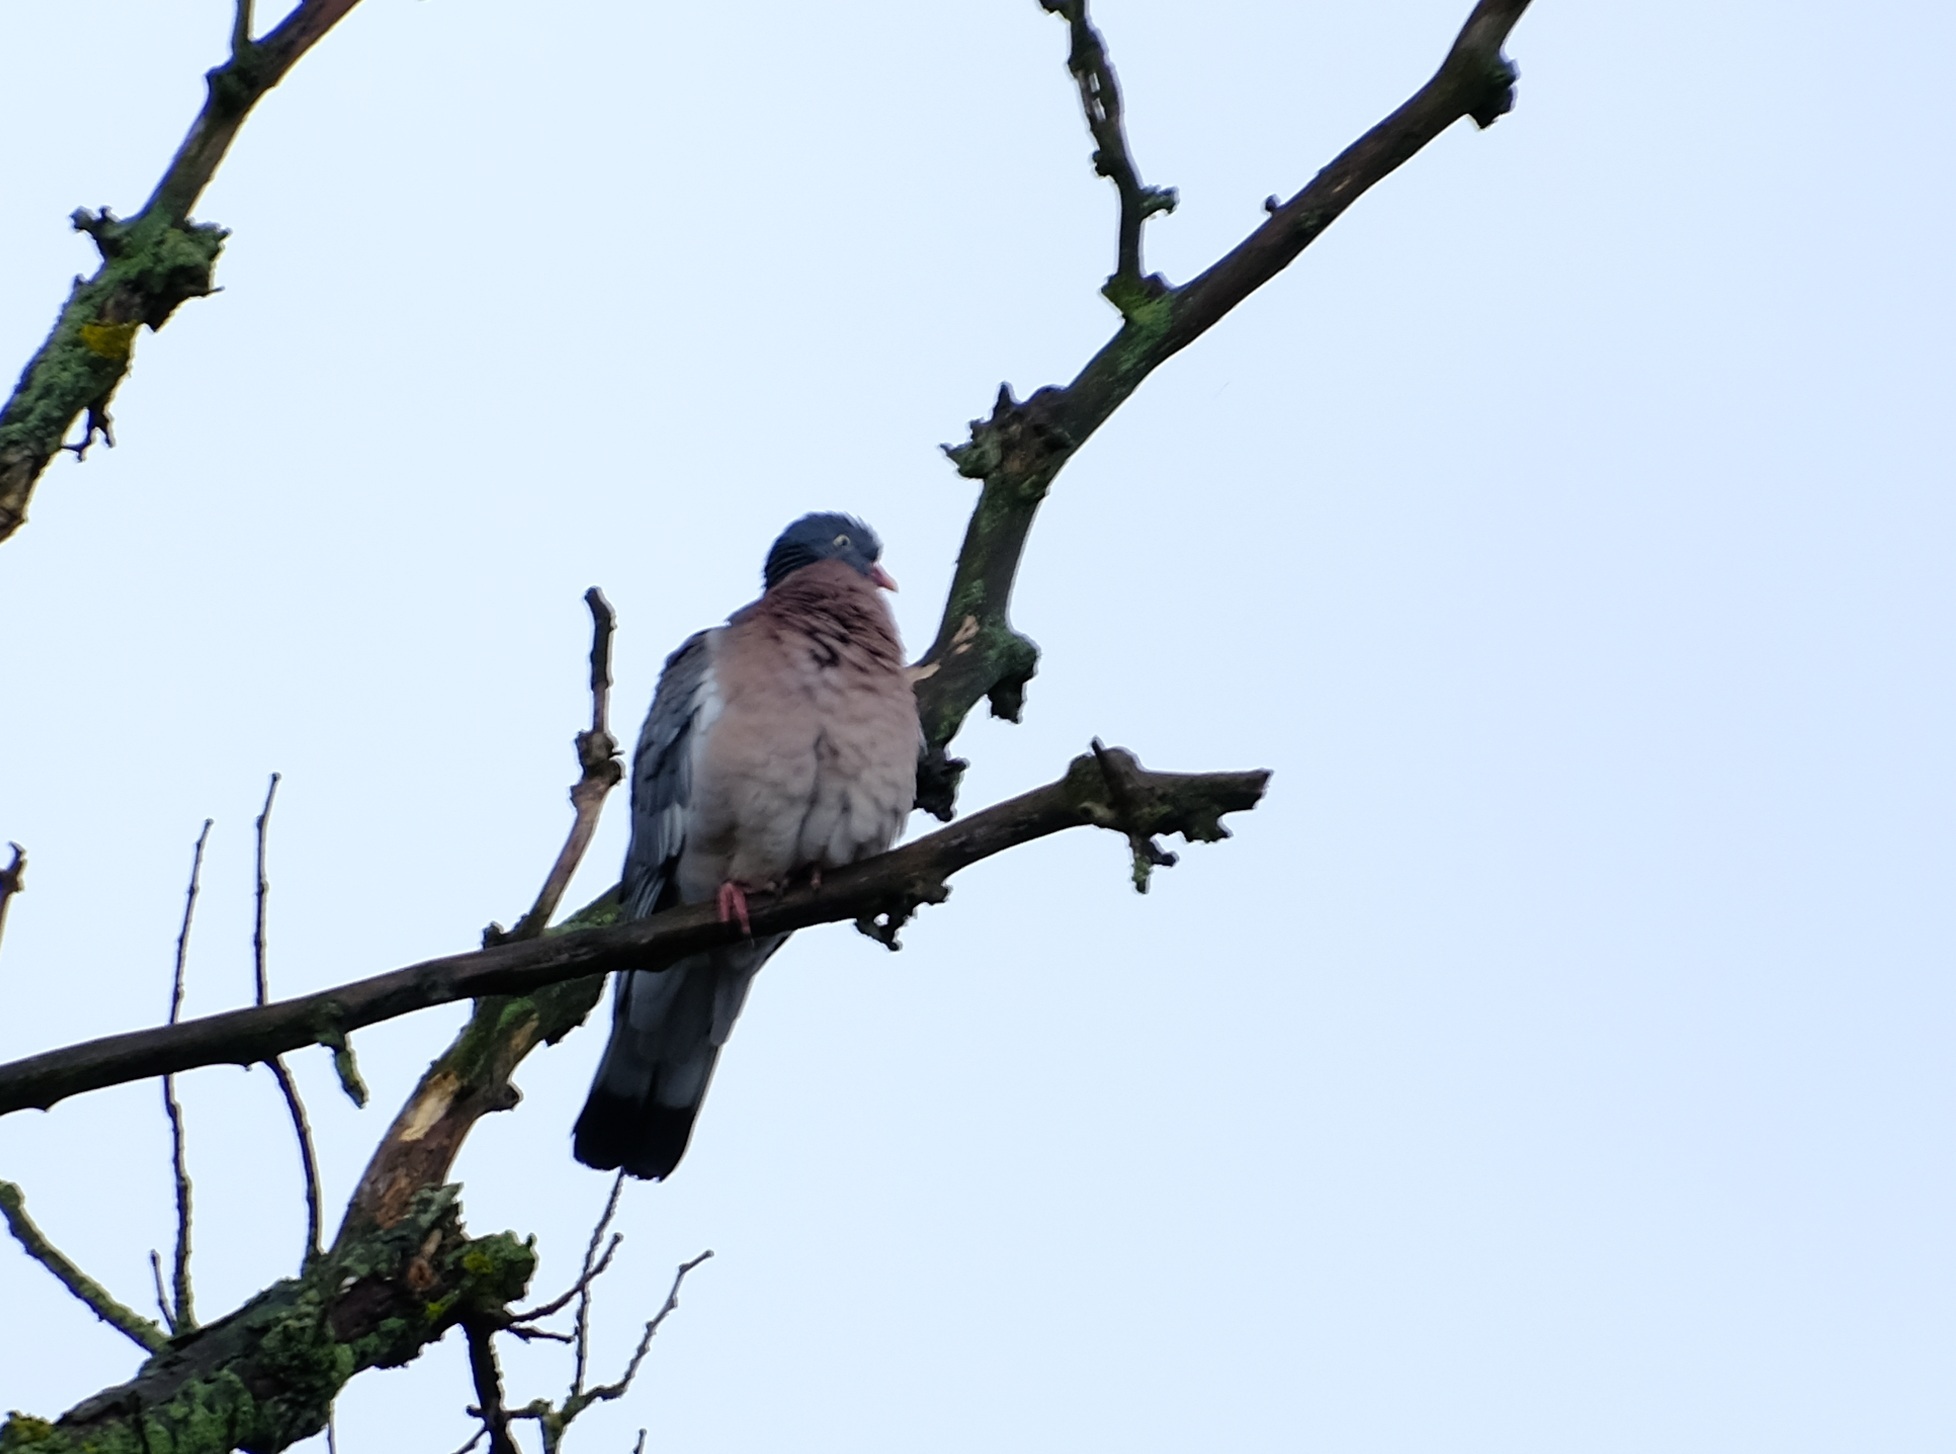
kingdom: Animalia
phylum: Chordata
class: Aves
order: Columbiformes
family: Columbidae
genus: Columba
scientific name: Columba palumbus
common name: Common wood pigeon
